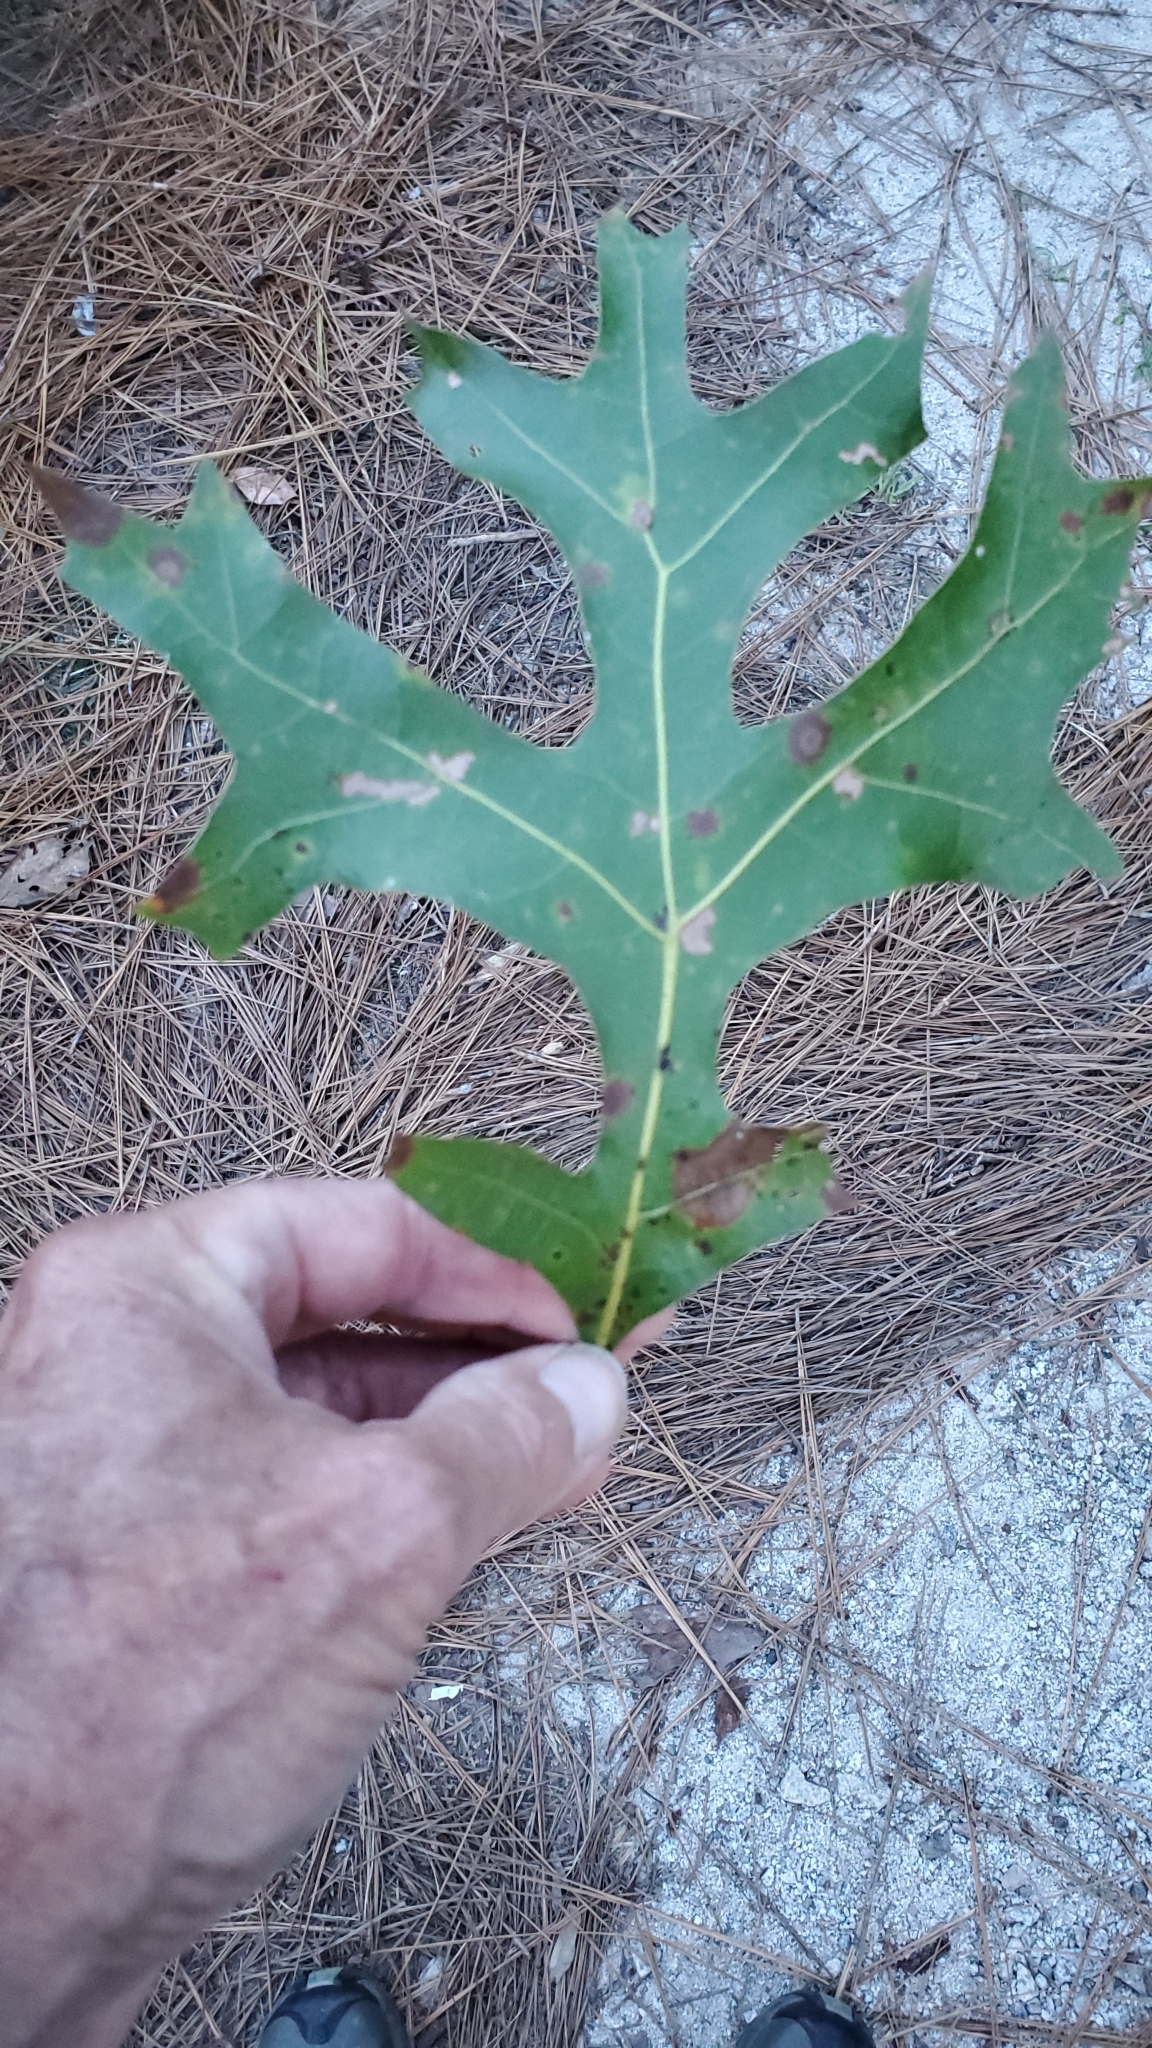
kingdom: Plantae
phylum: Tracheophyta
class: Magnoliopsida
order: Fagales
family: Fagaceae
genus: Quercus
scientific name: Quercus laevis
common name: Turkey oak
